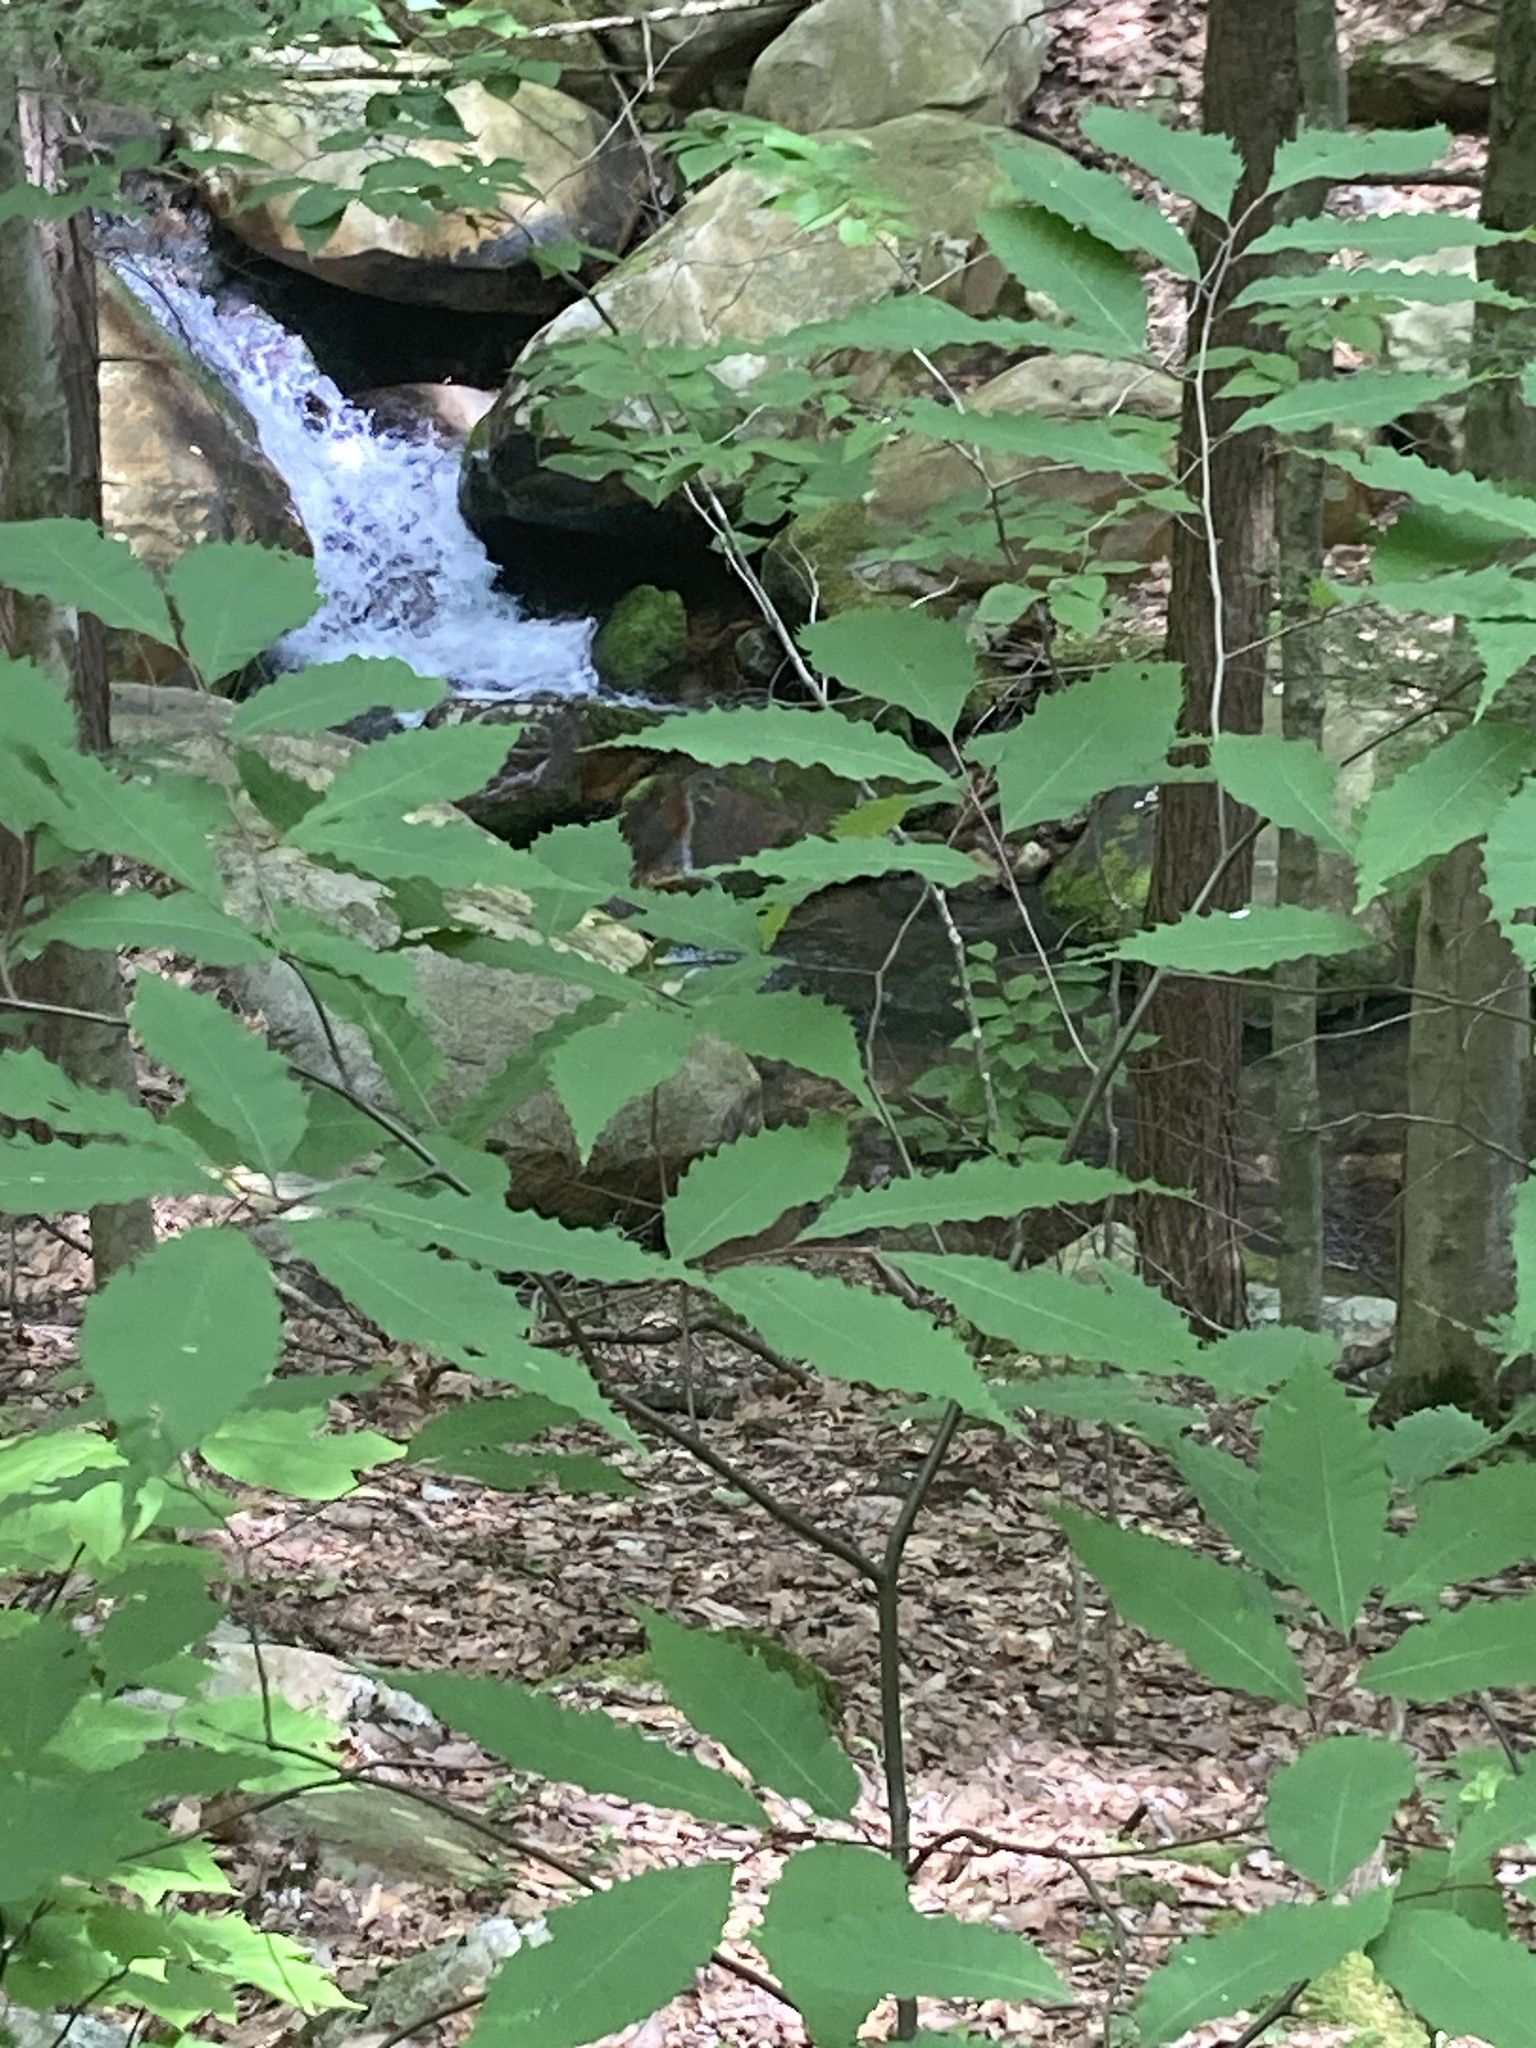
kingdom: Plantae
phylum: Tracheophyta
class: Magnoliopsida
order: Fagales
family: Fagaceae
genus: Castanea
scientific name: Castanea dentata
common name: American chestnut
